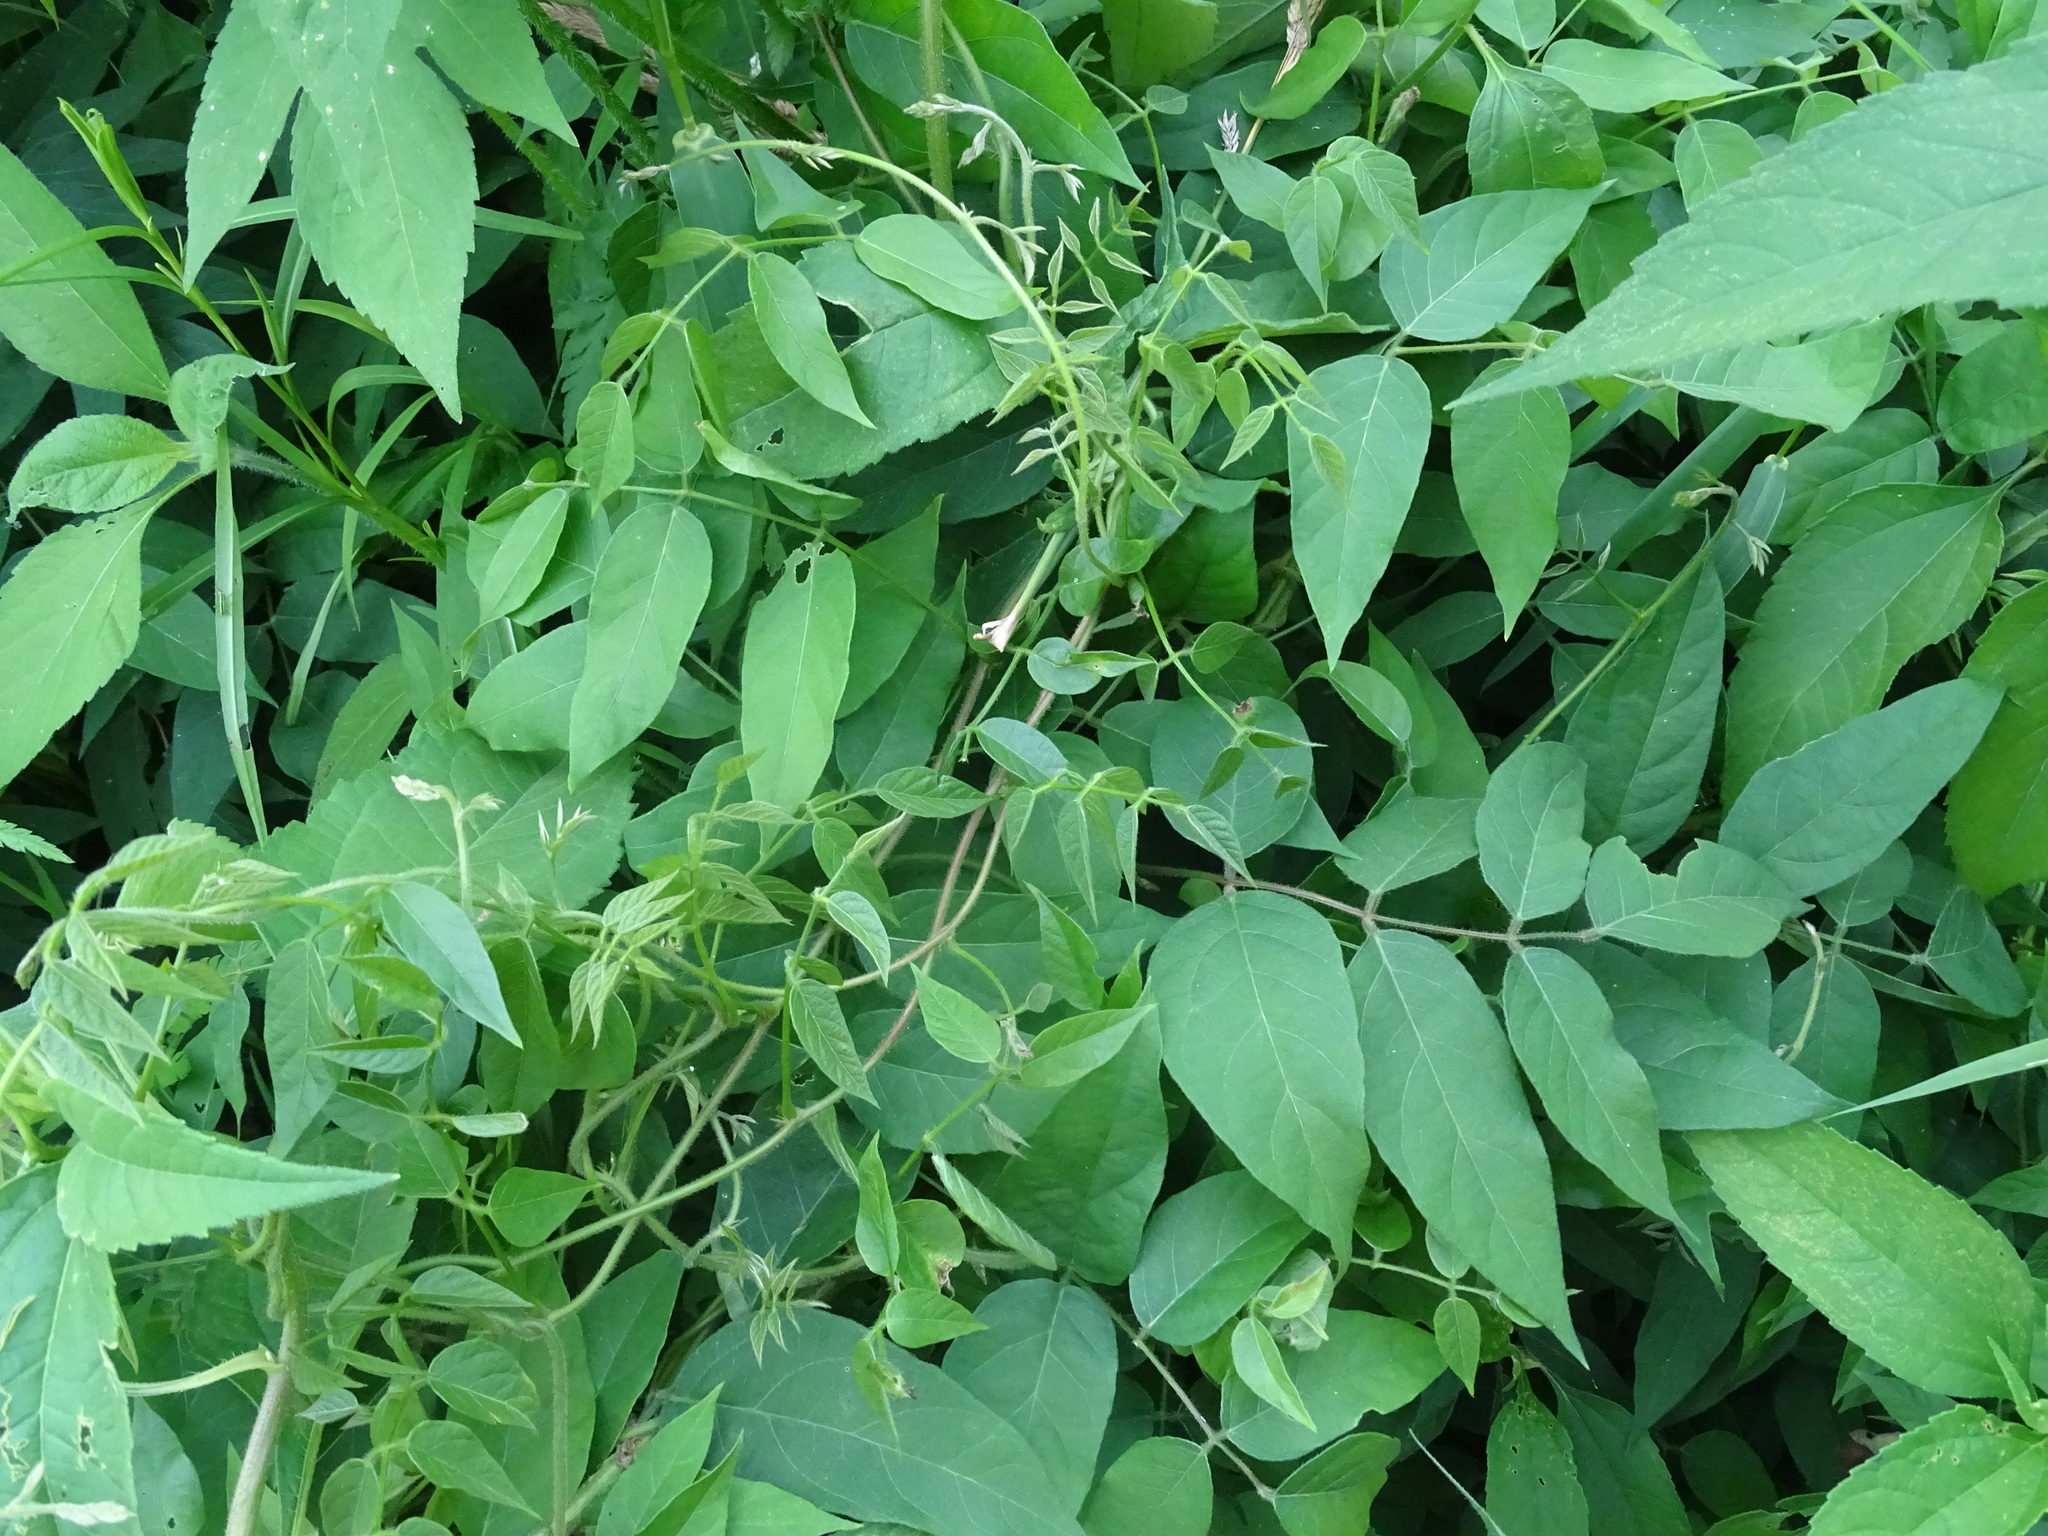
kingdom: Plantae
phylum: Tracheophyta
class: Magnoliopsida
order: Fabales
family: Fabaceae
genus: Apios
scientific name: Apios americana
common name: American potato-bean
